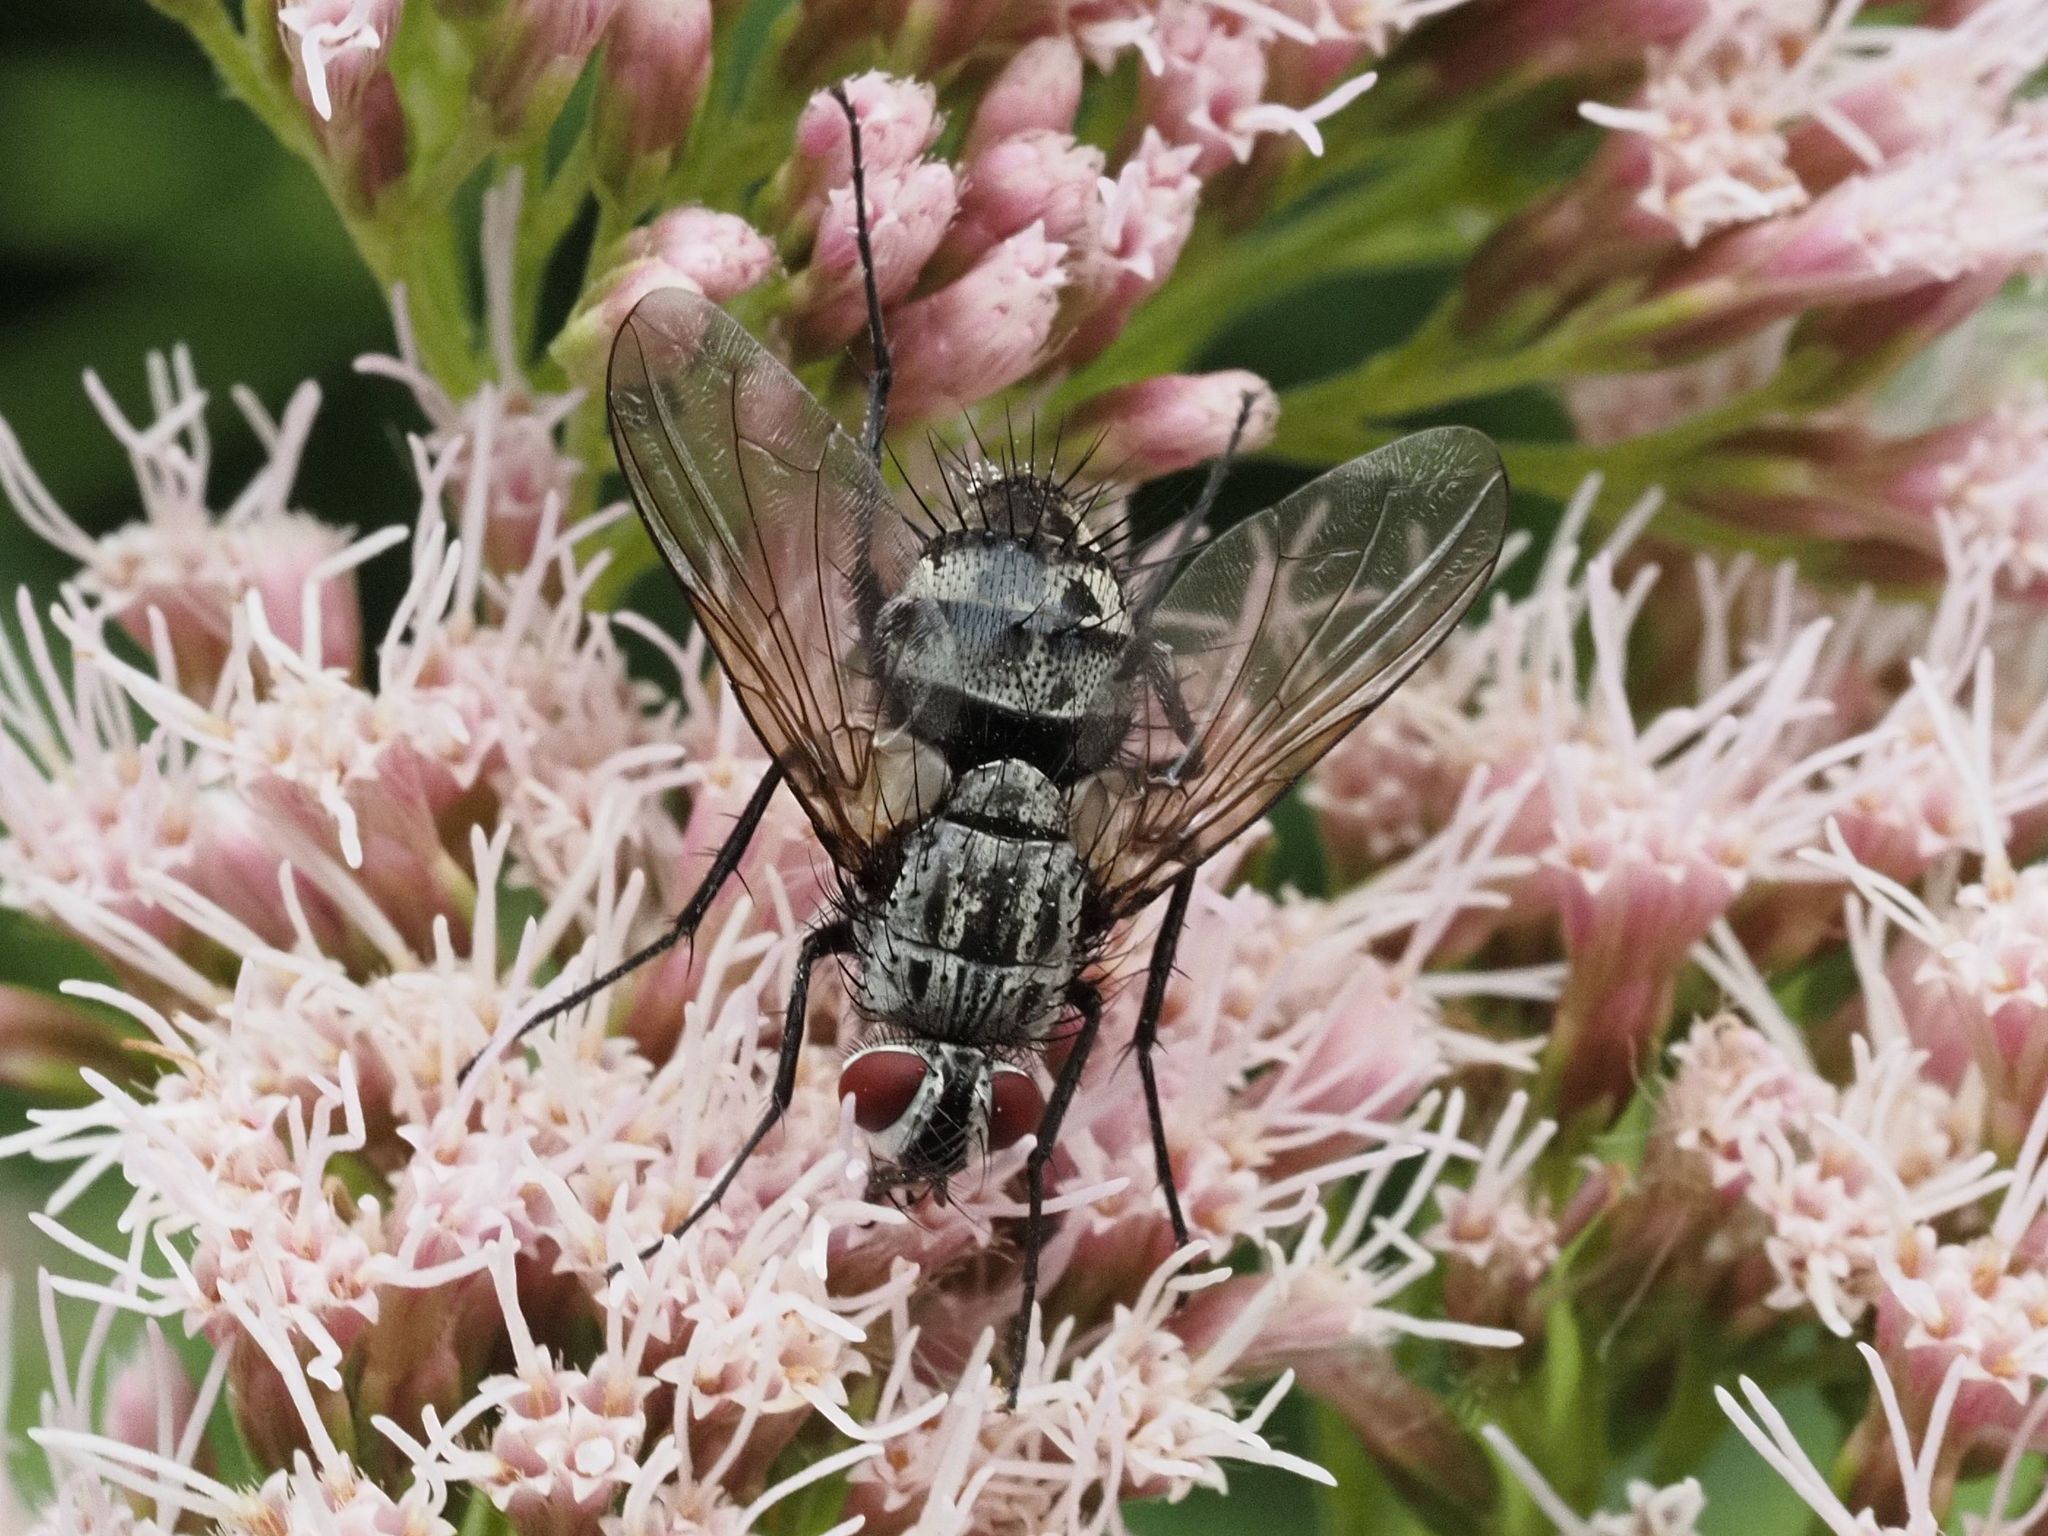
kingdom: Animalia
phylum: Arthropoda
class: Insecta
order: Diptera
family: Tachinidae
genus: Dinera
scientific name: Dinera ferina
